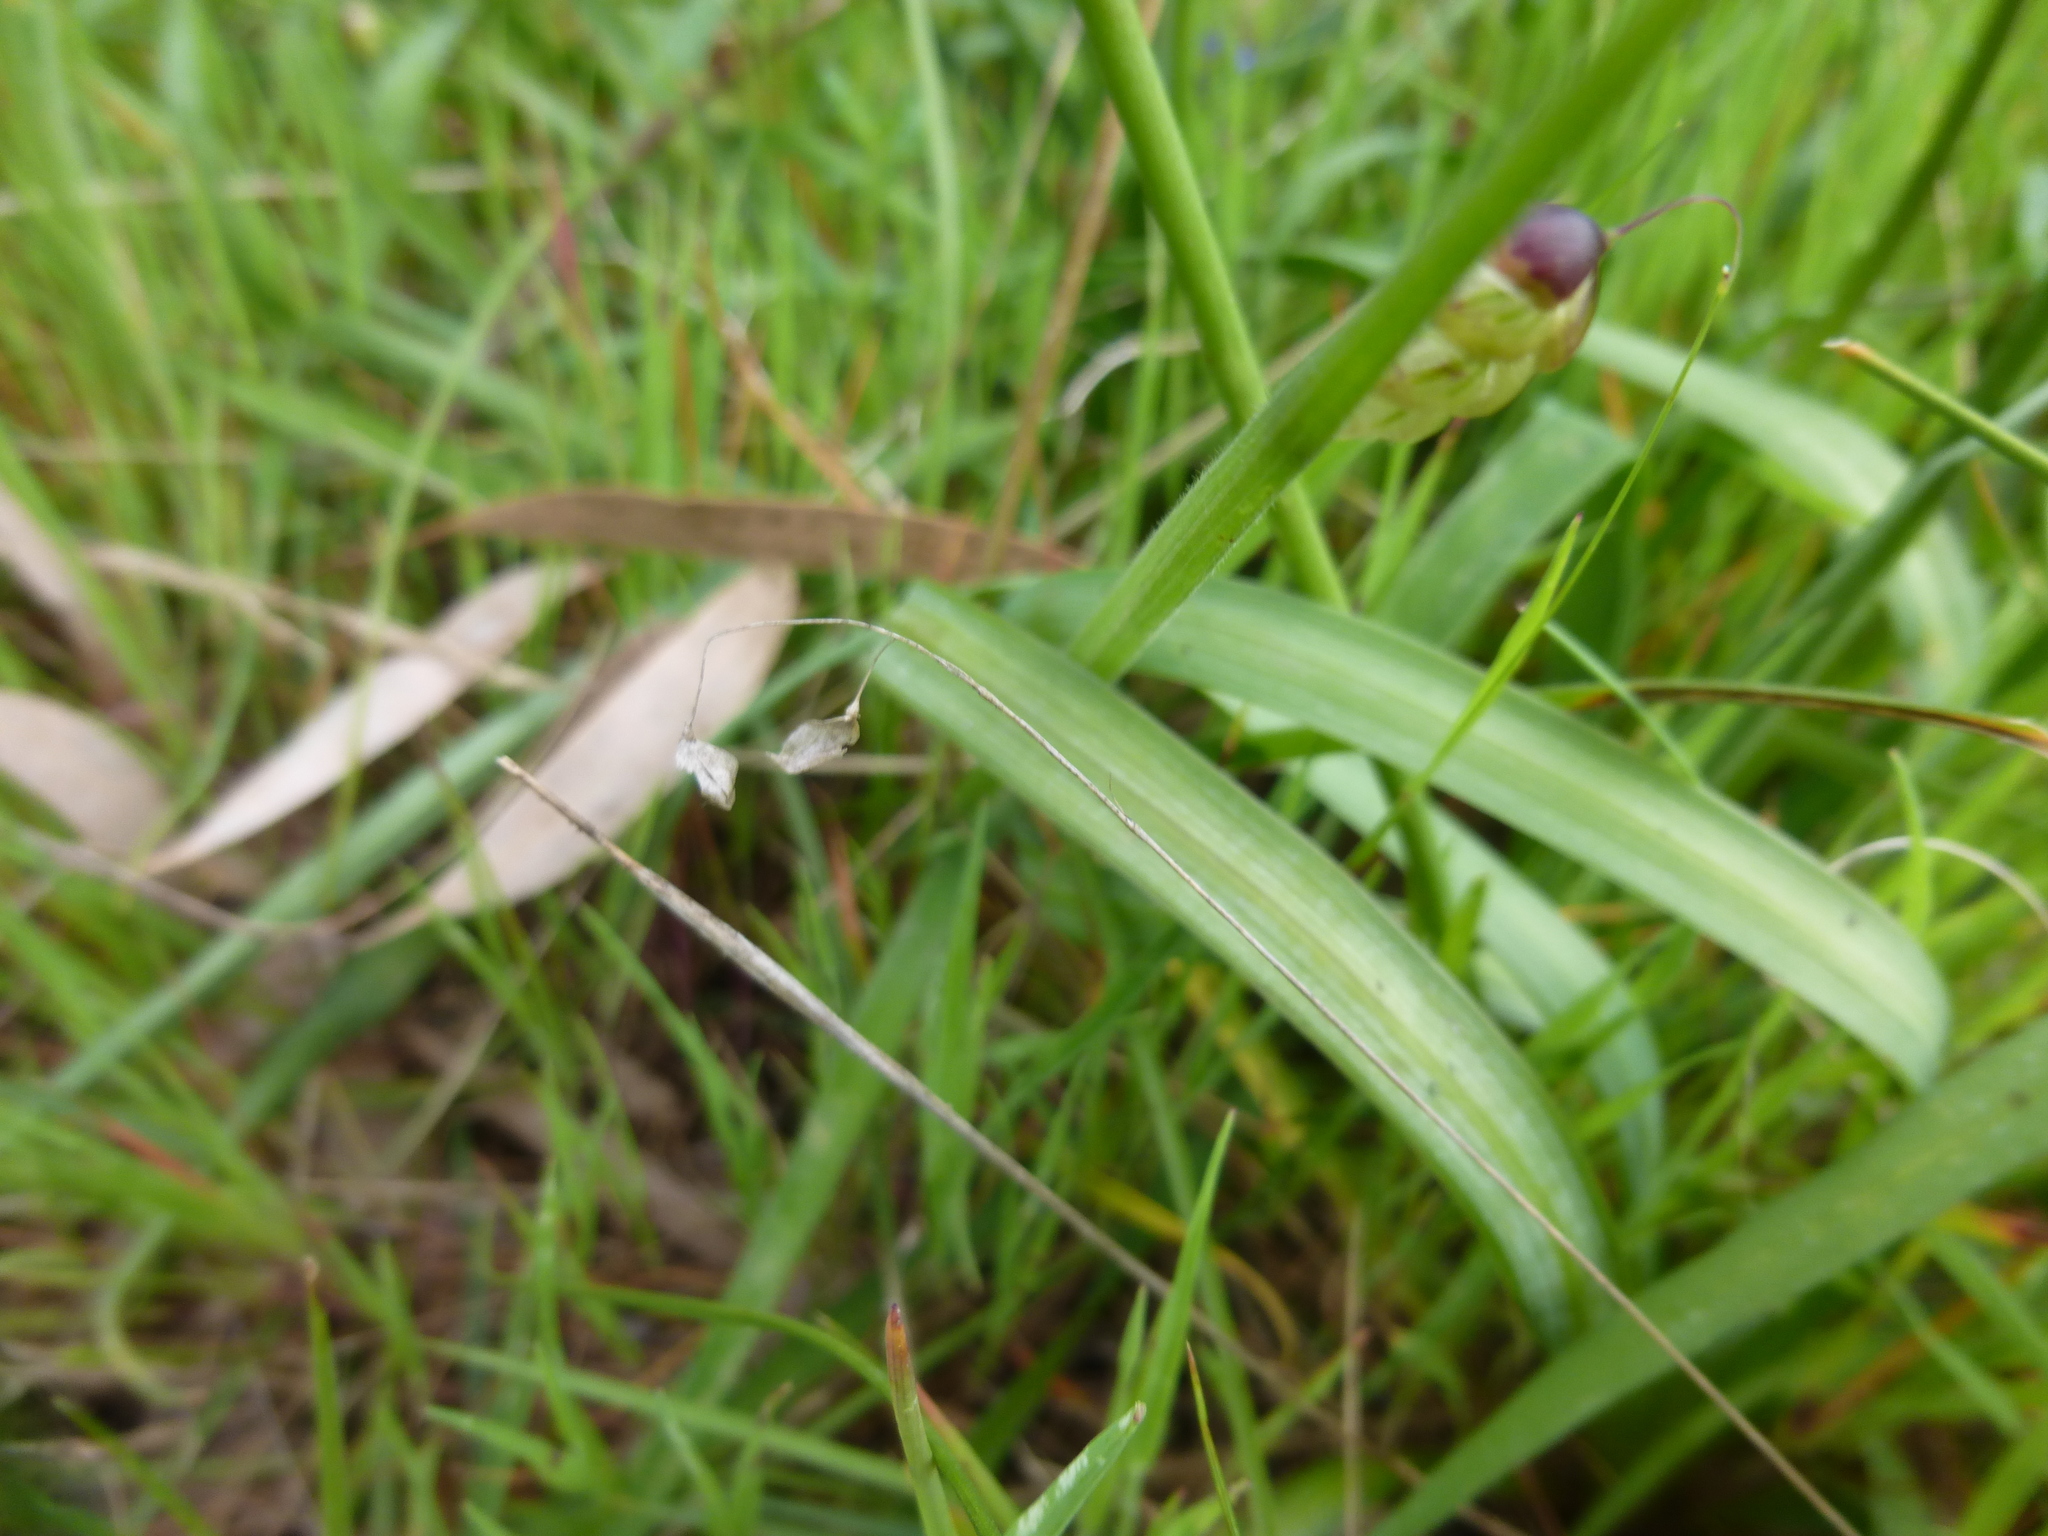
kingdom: Plantae
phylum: Tracheophyta
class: Liliopsida
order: Asparagales
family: Asparagaceae
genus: Arthropodium
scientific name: Arthropodium strictum
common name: Chocolate-lily
